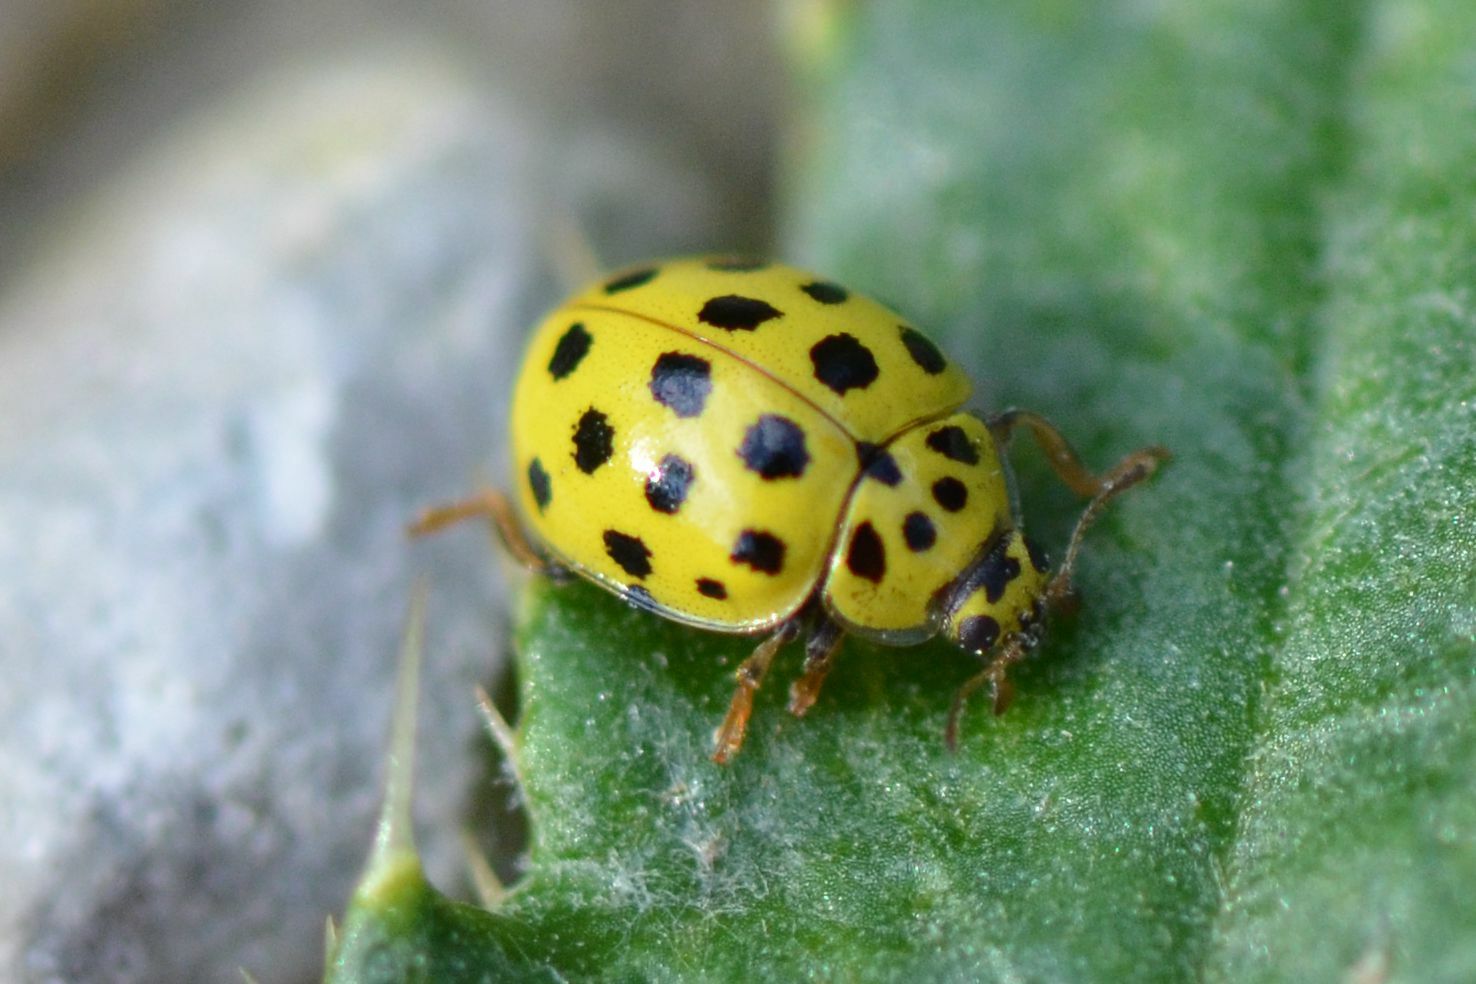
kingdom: Animalia
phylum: Arthropoda
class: Insecta
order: Coleoptera
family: Coccinellidae
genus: Psyllobora
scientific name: Psyllobora vigintiduopunctata
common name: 22-spot ladybird
